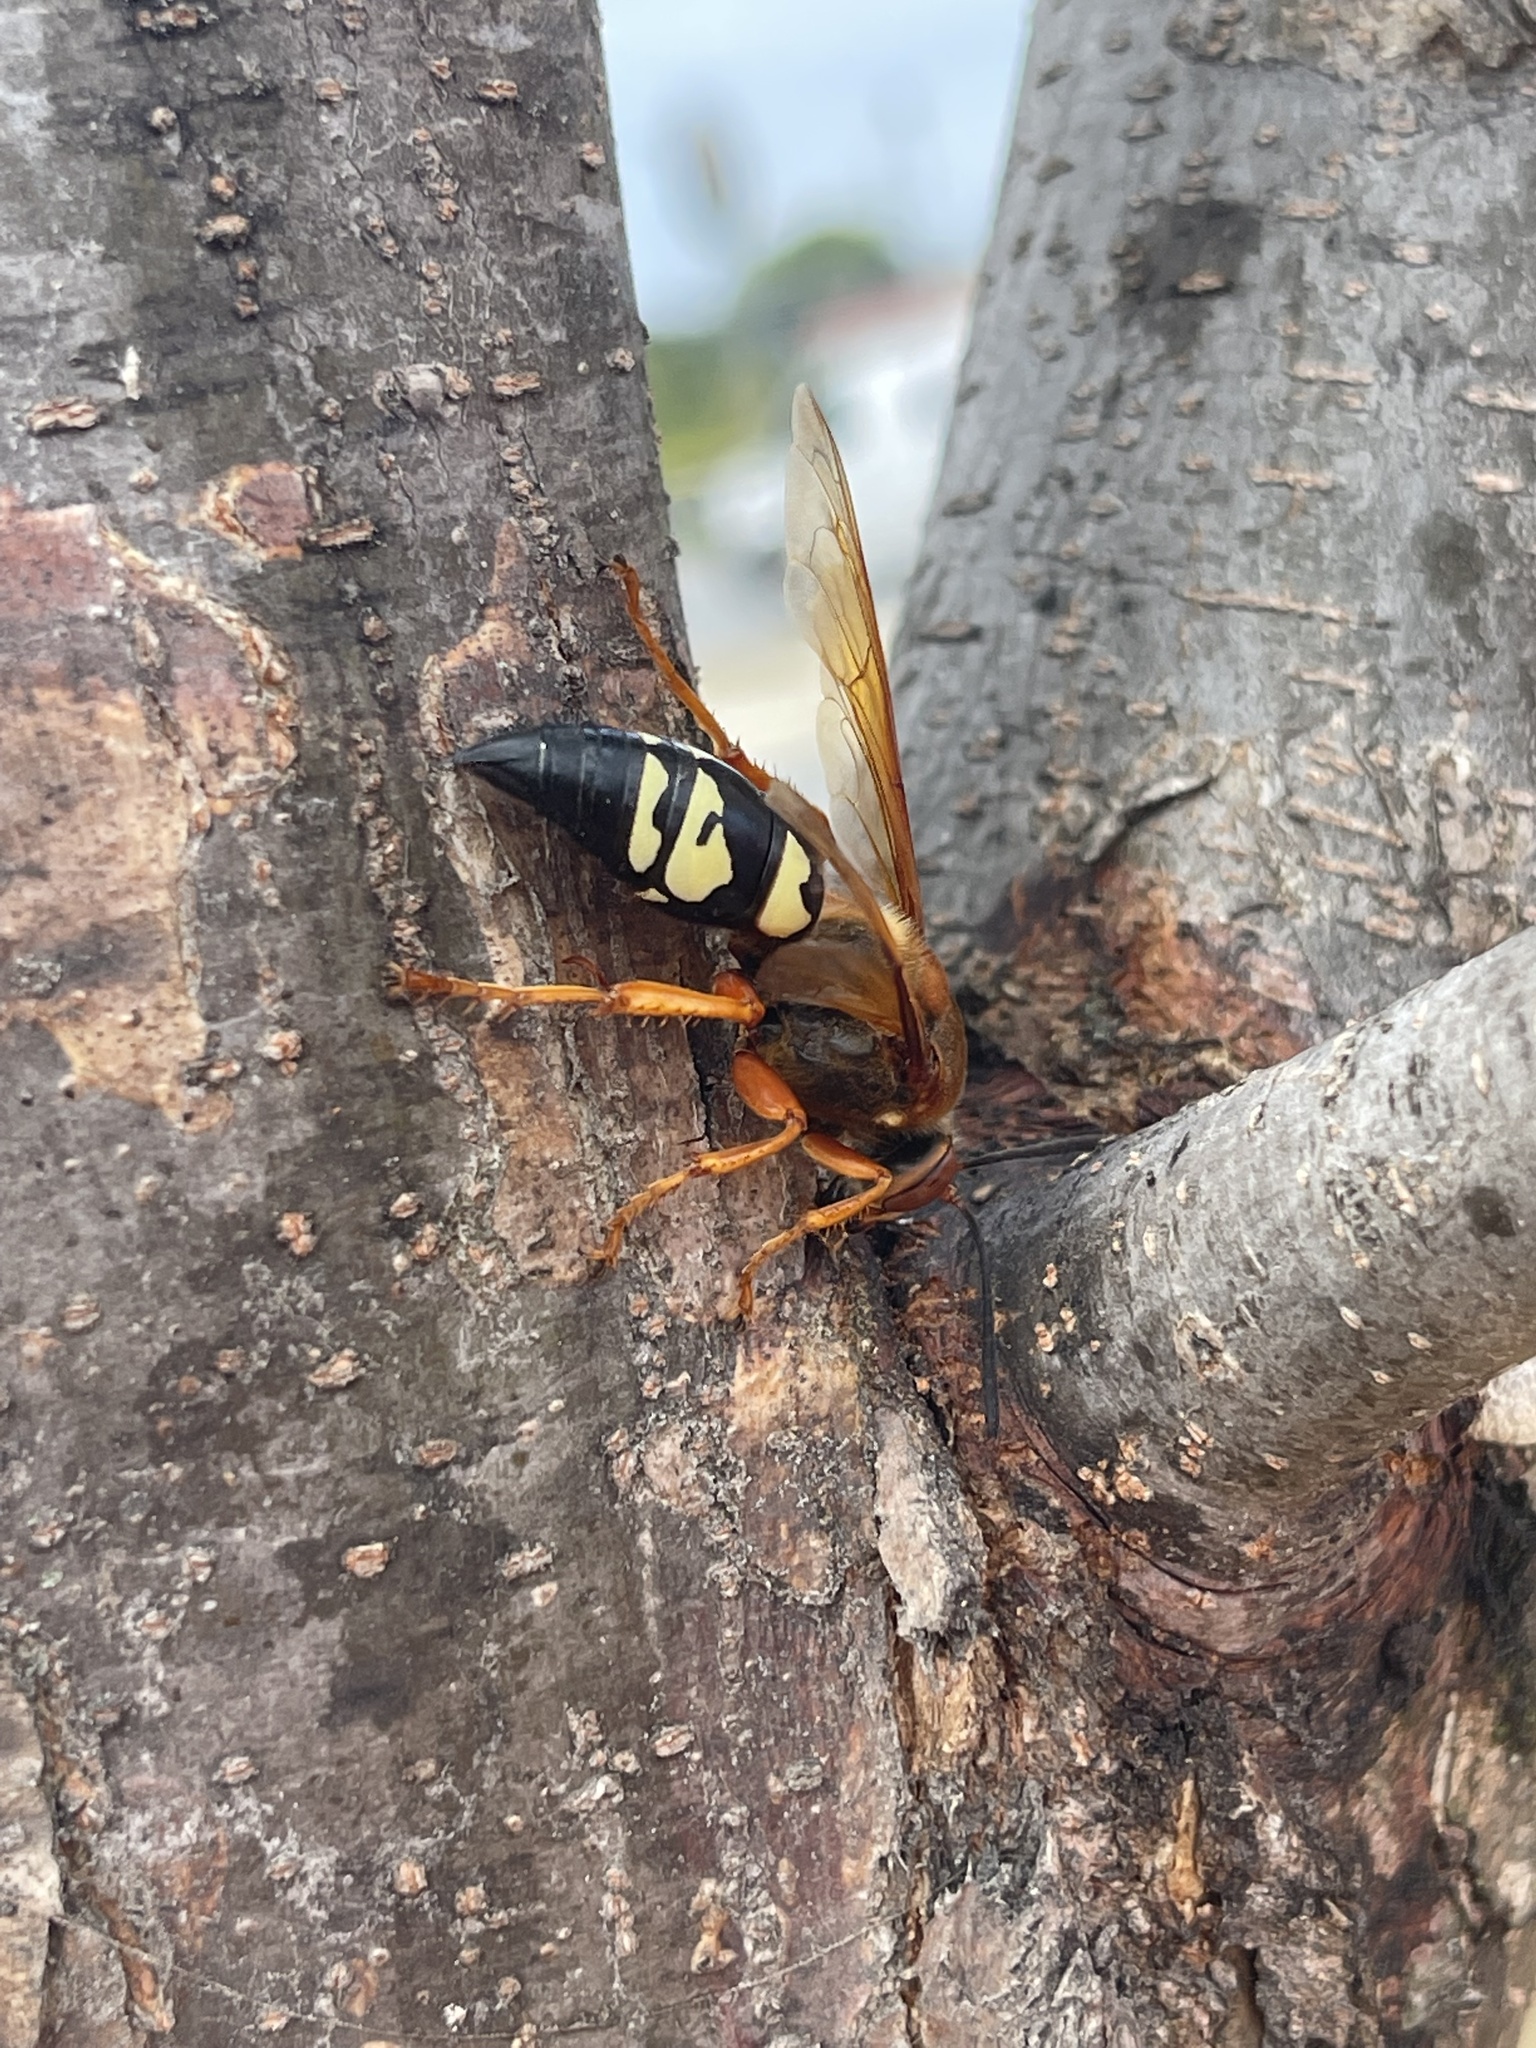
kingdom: Animalia
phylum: Arthropoda
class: Insecta
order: Hymenoptera
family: Crabronidae
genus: Sphecius
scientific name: Sphecius speciosus
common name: Cicada killer
